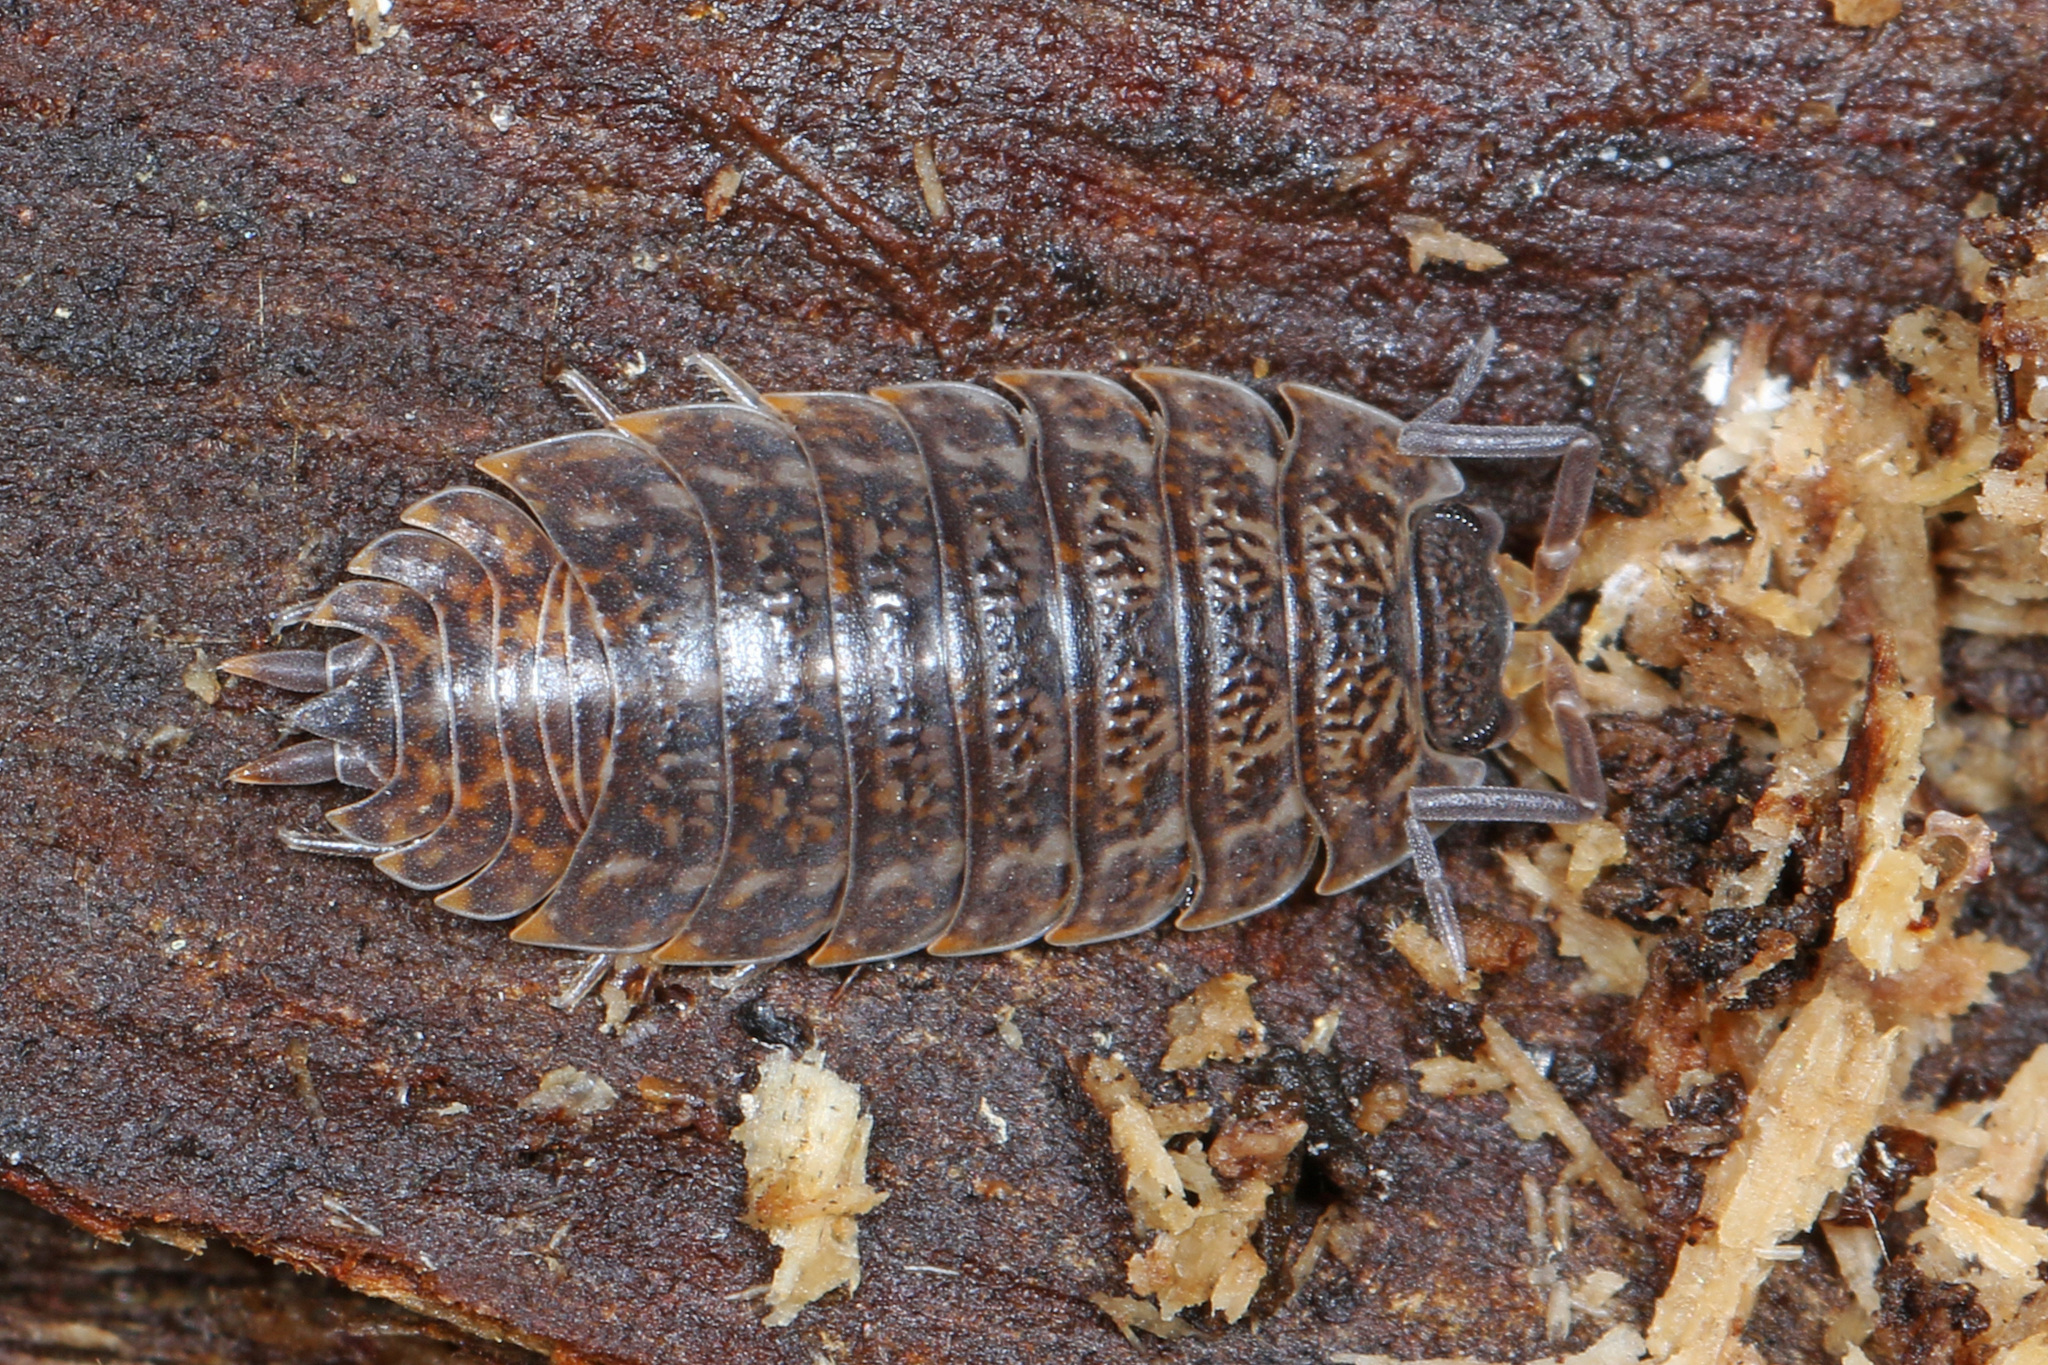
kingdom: Animalia
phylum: Arthropoda
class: Malacostraca
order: Isopoda
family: Trachelipodidae
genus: Trachelipus
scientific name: Trachelipus rathkii
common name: Isopod
